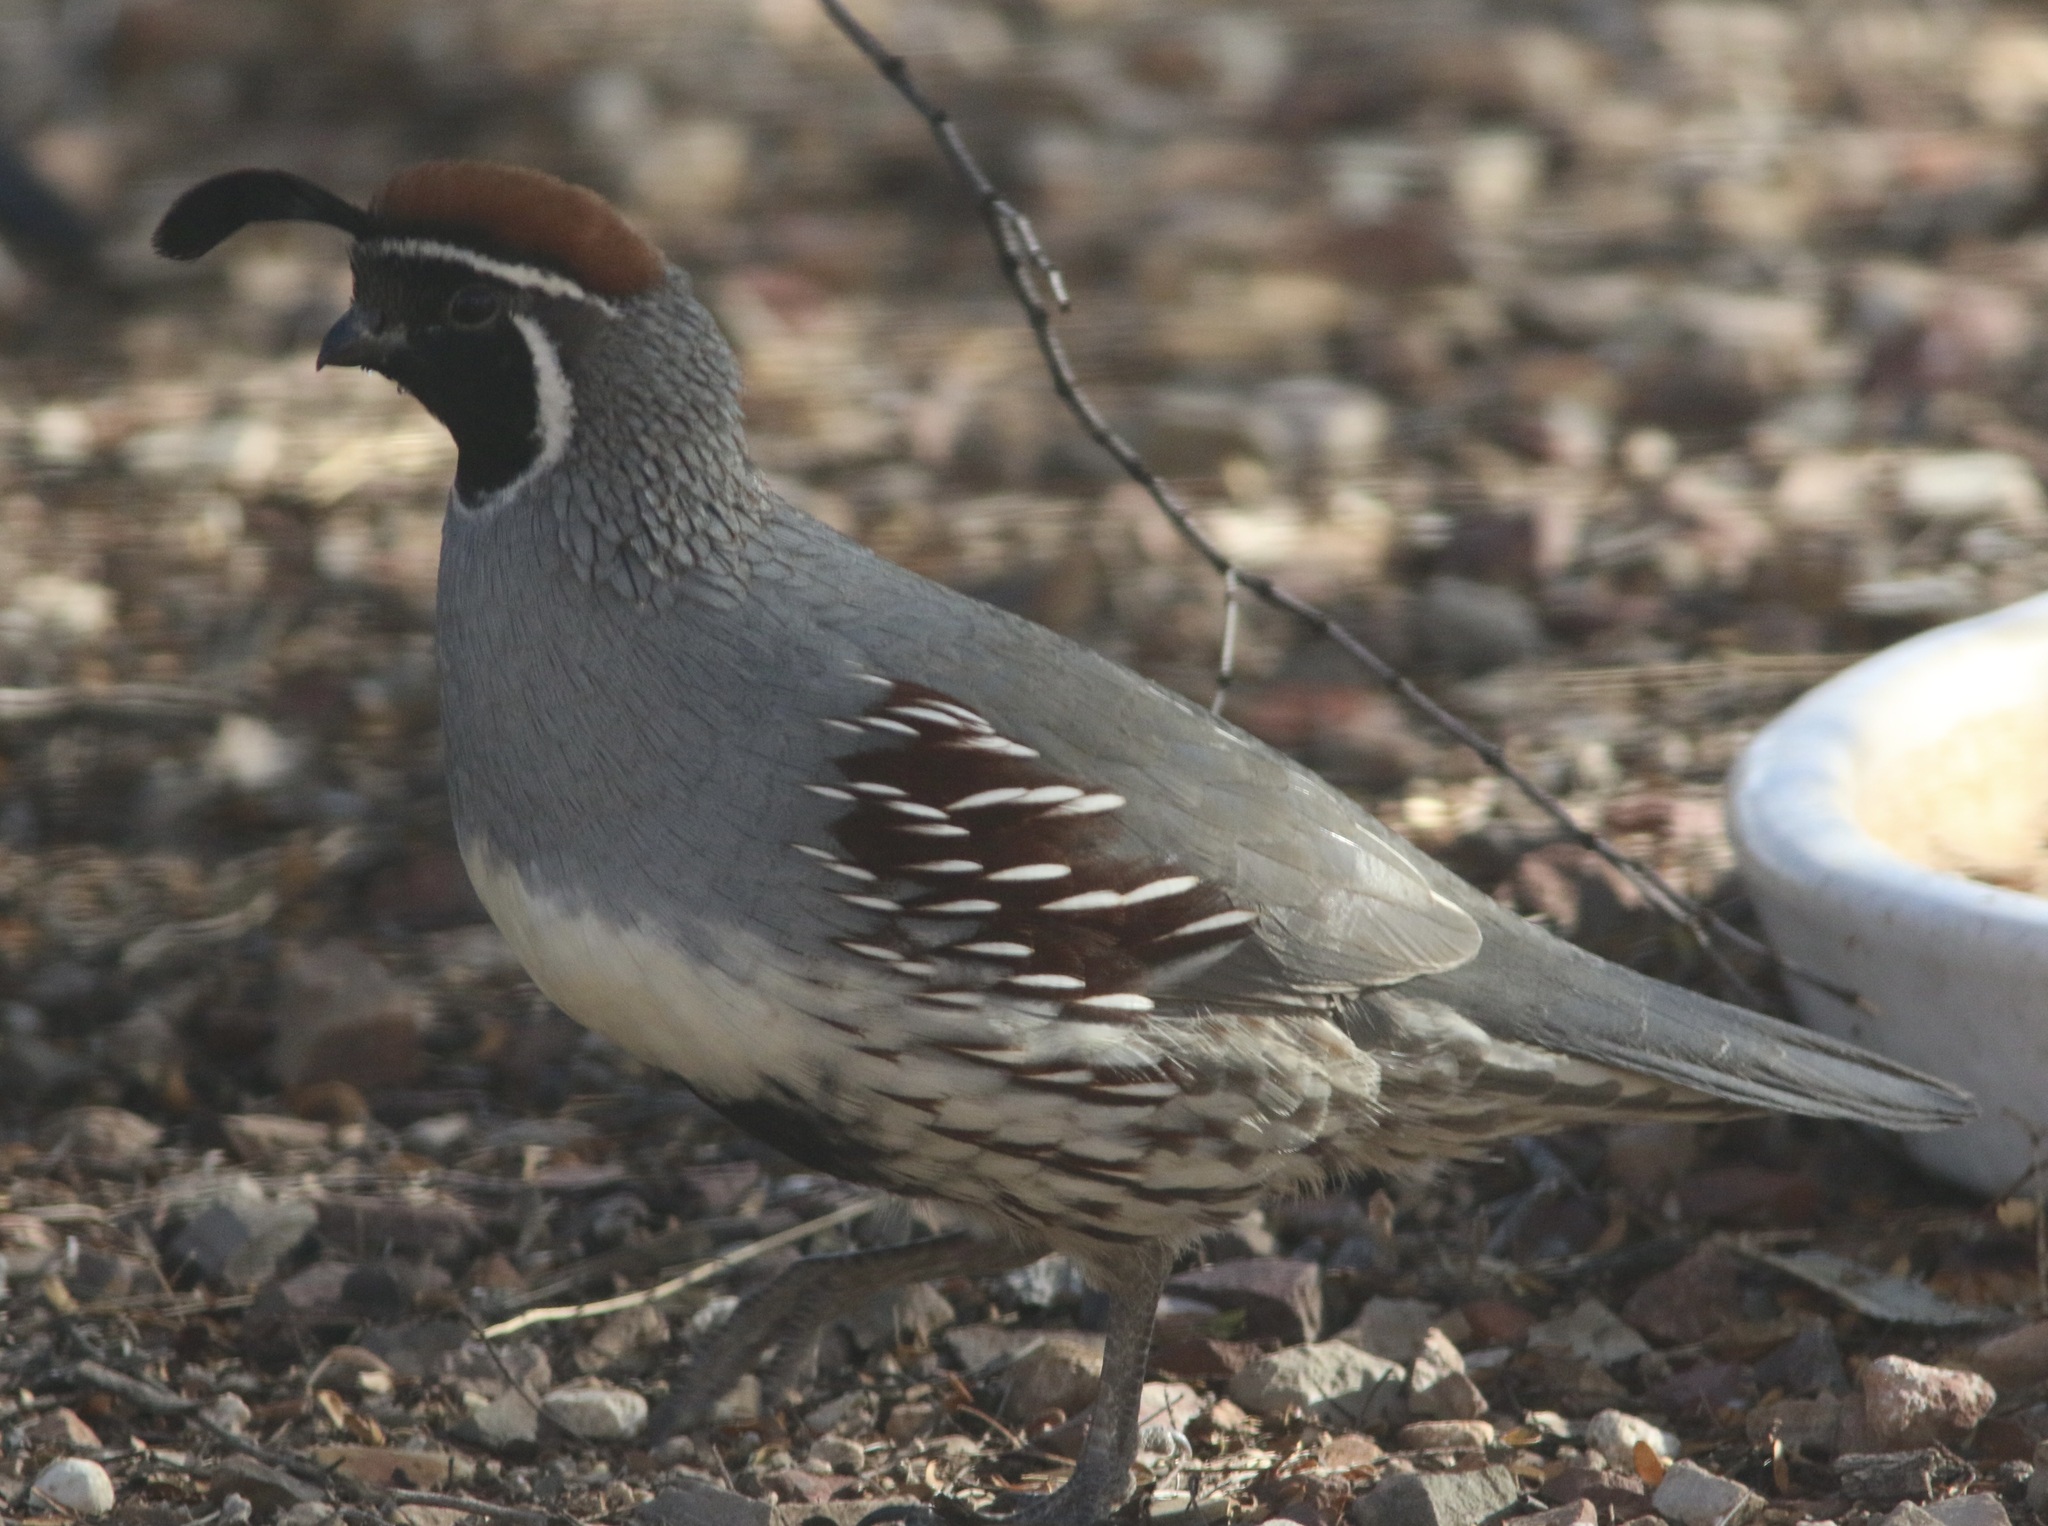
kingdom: Animalia
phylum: Chordata
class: Aves
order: Galliformes
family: Odontophoridae
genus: Callipepla
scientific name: Callipepla gambelii
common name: Gambel's quail
